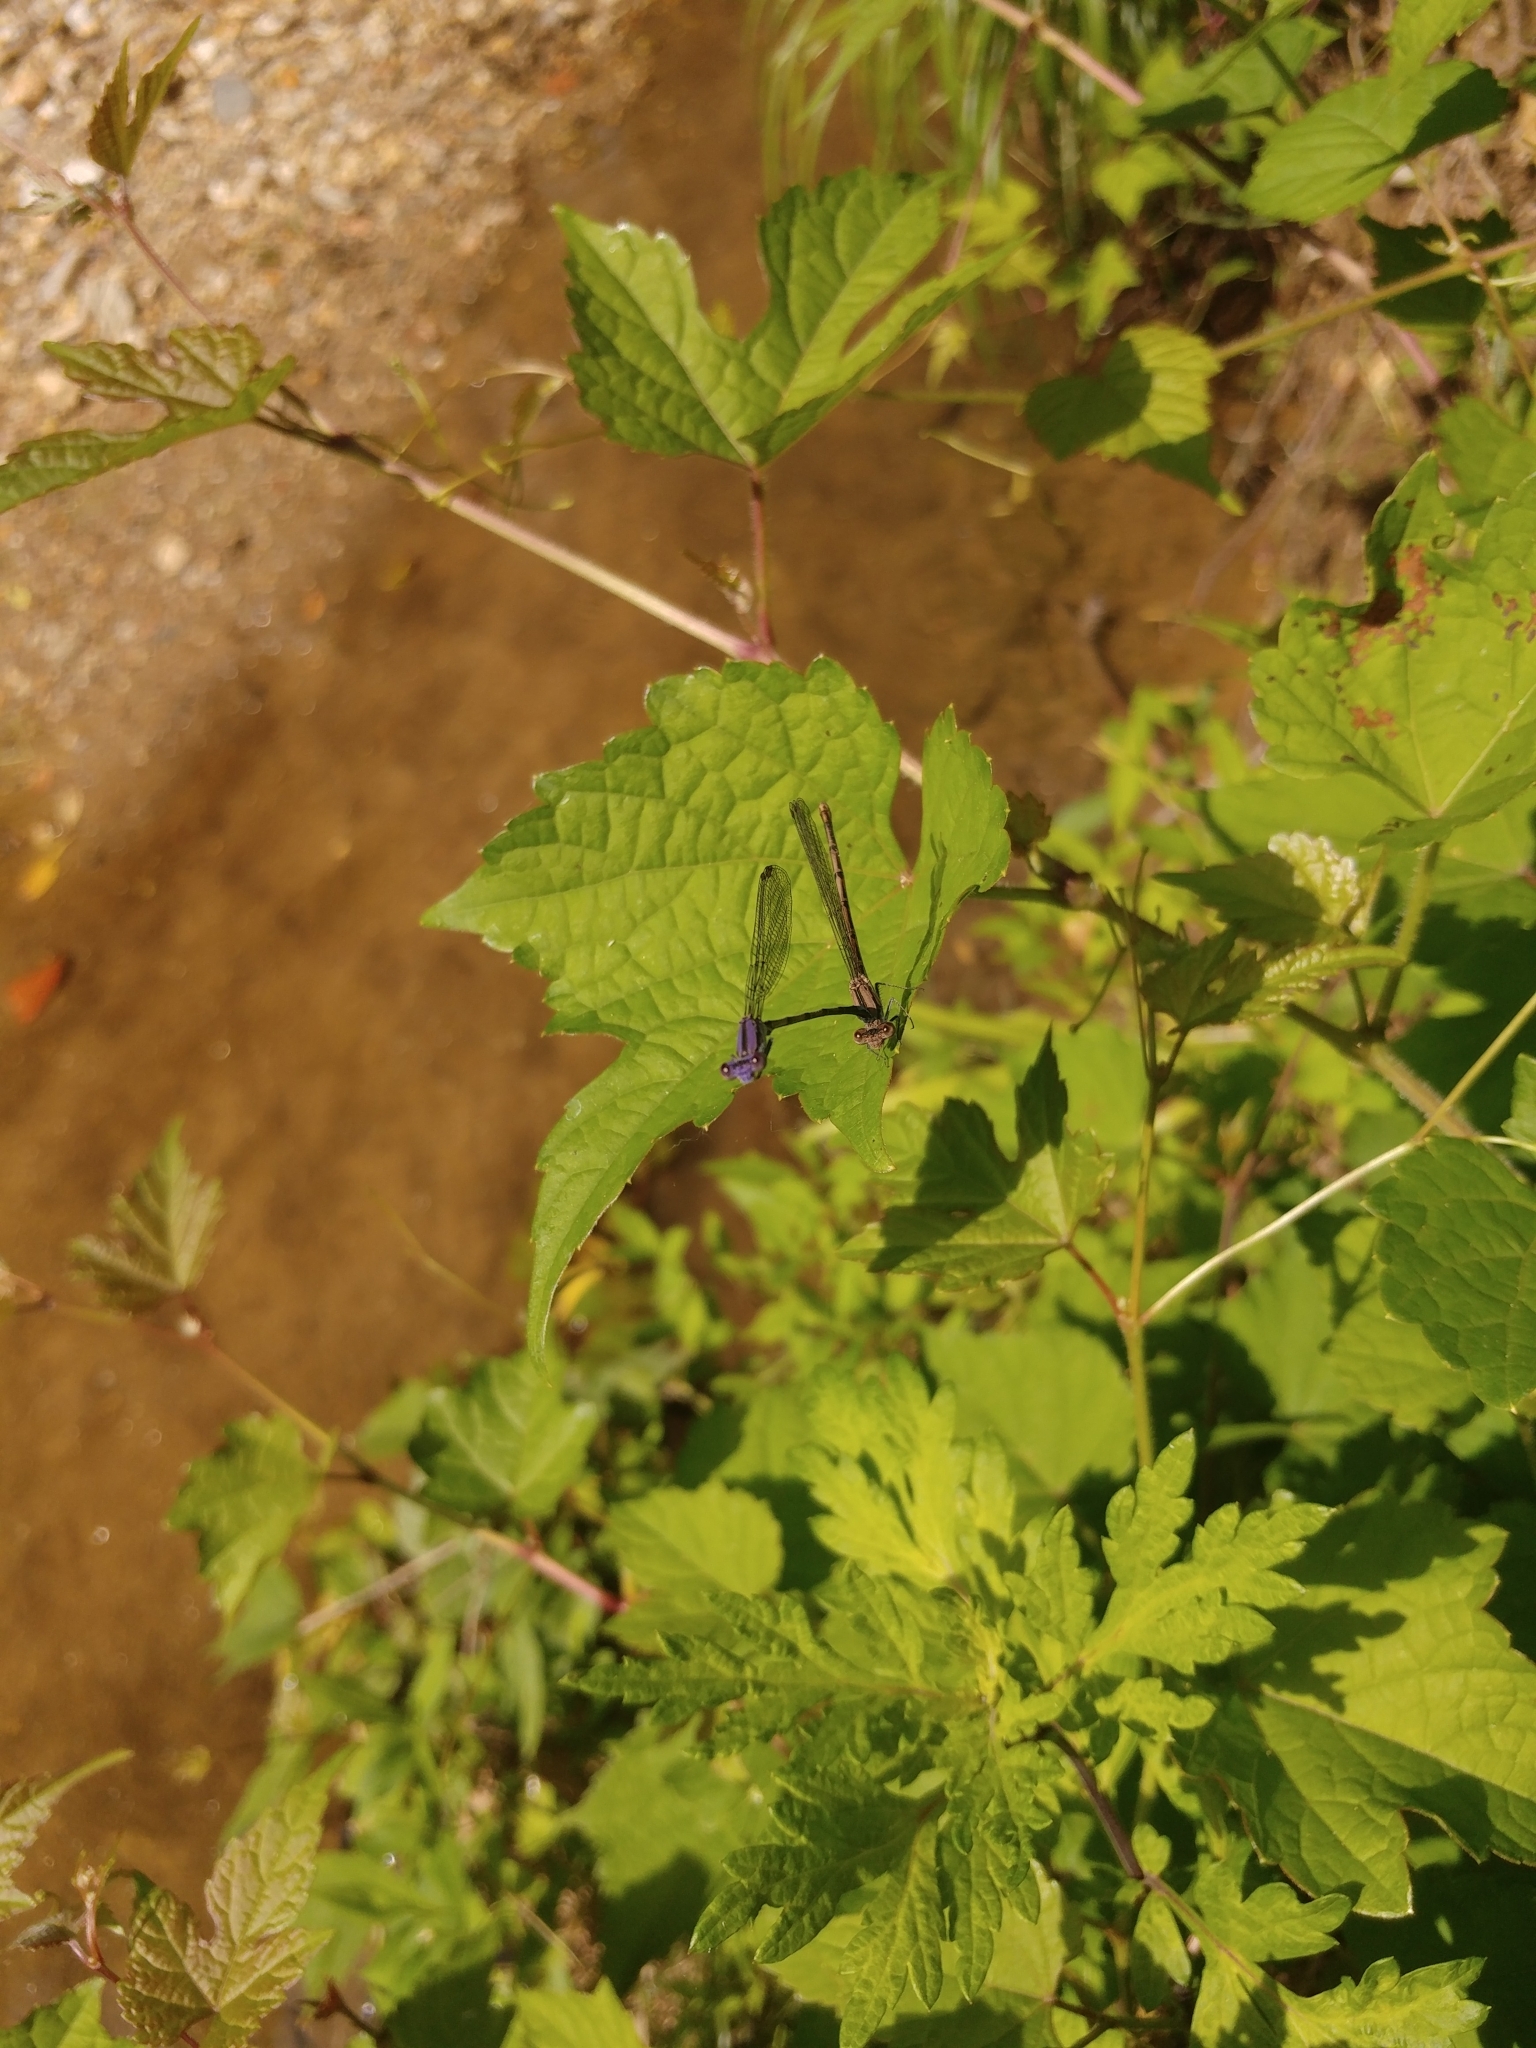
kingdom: Animalia
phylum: Arthropoda
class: Insecta
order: Odonata
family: Coenagrionidae
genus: Argia
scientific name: Argia fumipennis
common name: Variable dancer
